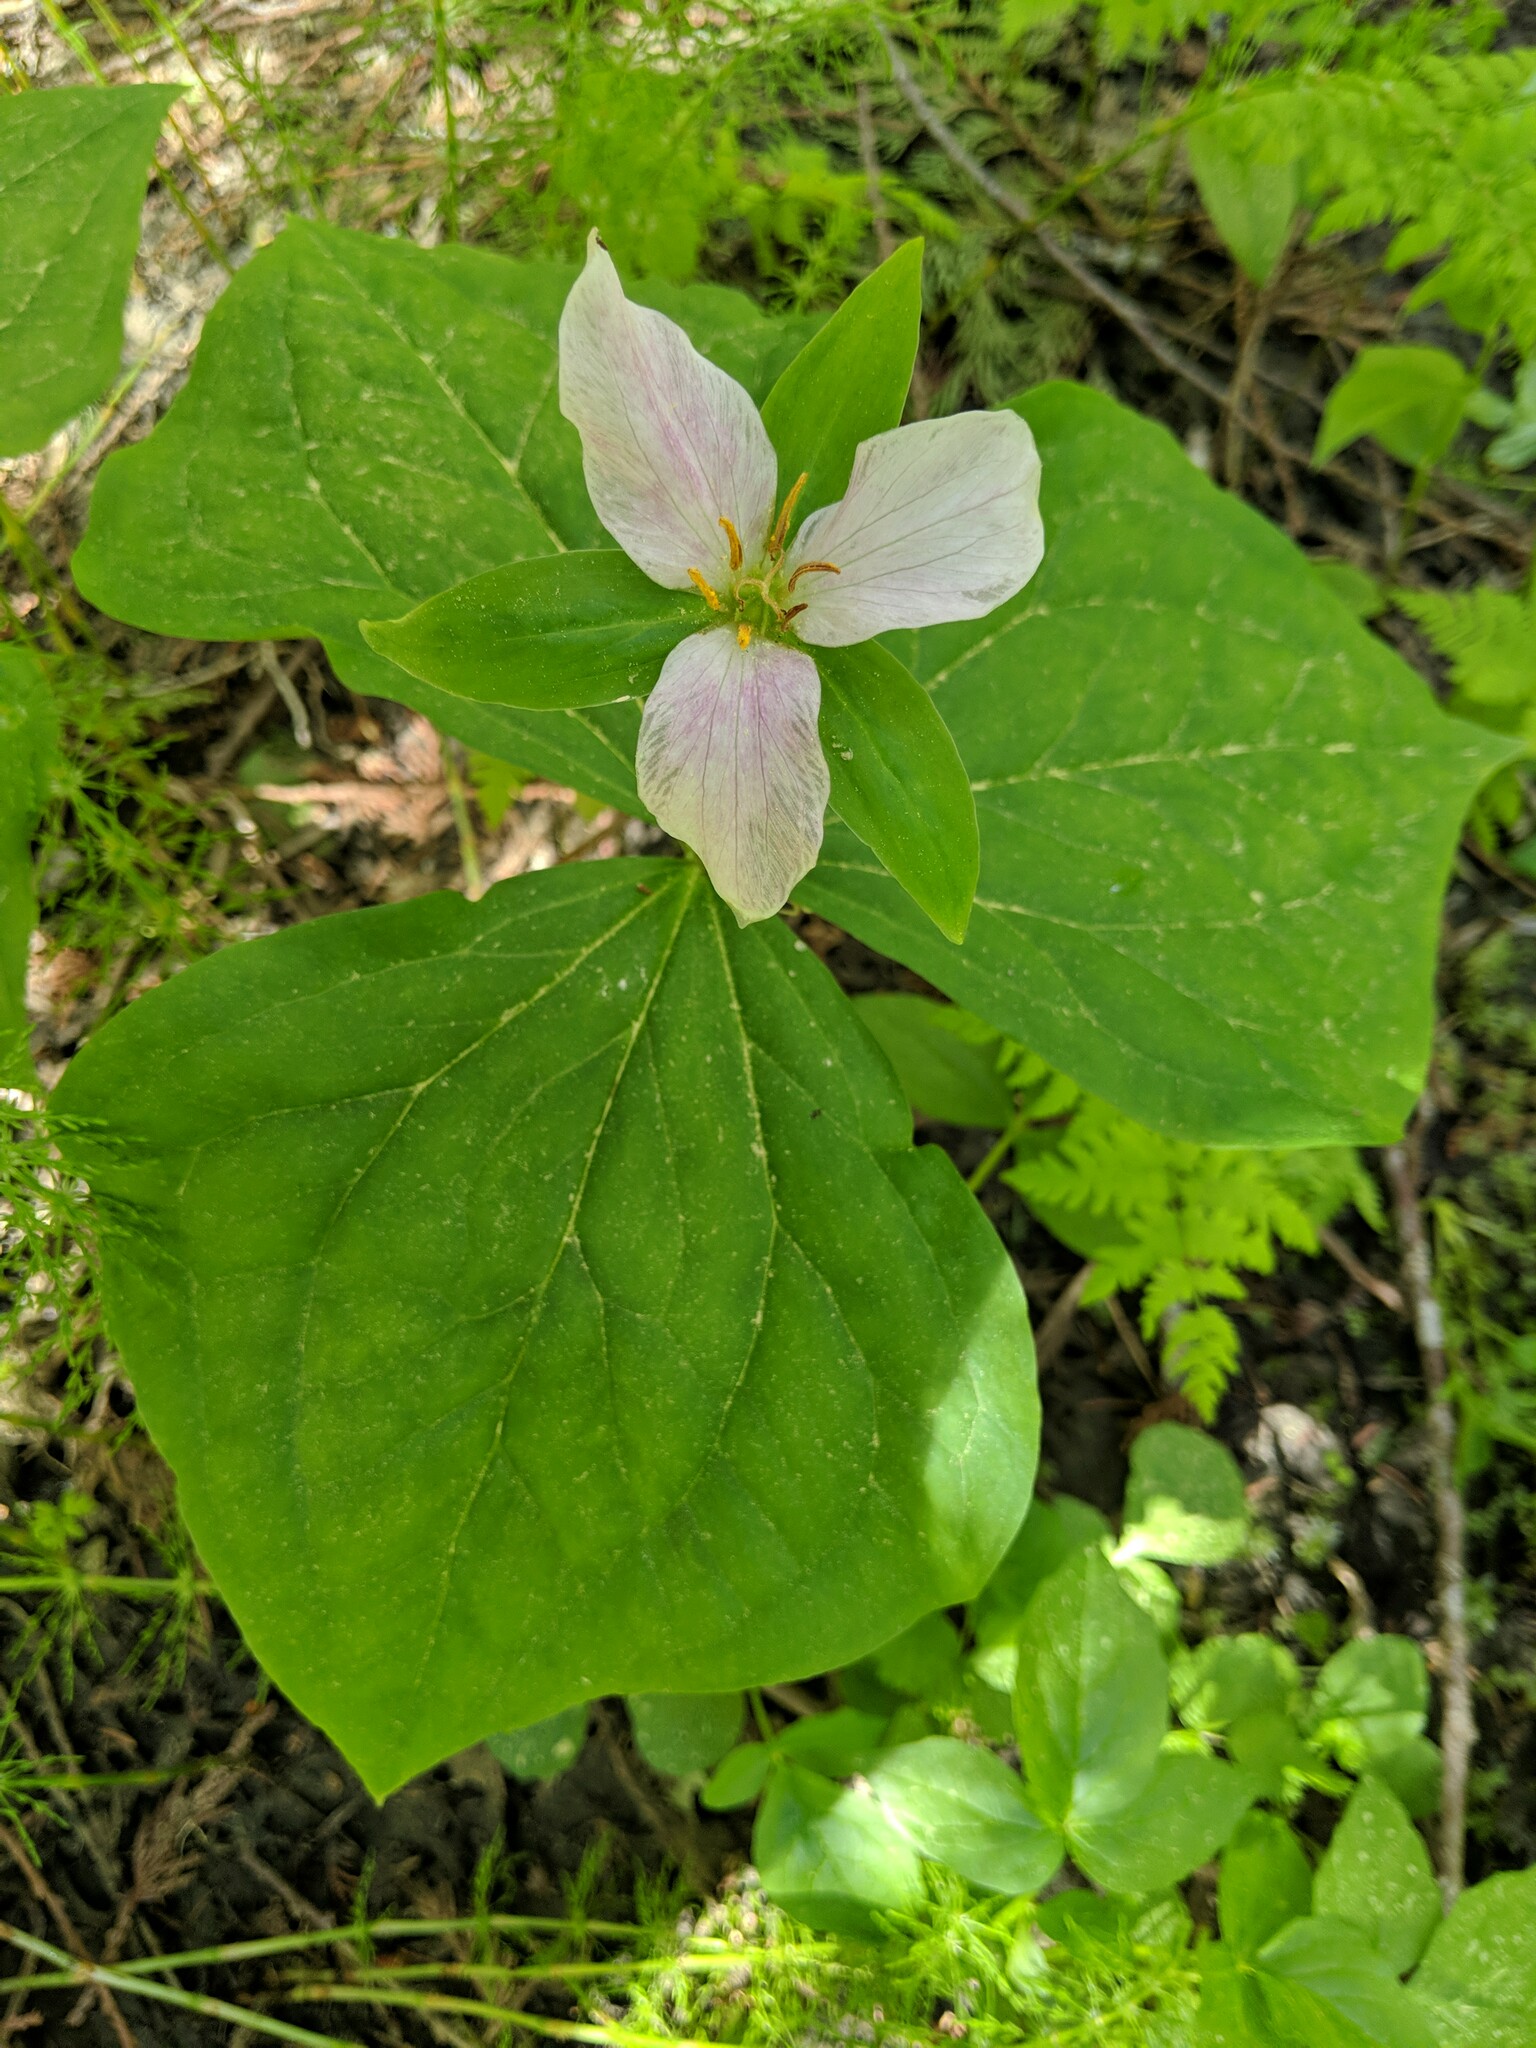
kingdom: Plantae
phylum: Tracheophyta
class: Liliopsida
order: Liliales
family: Melanthiaceae
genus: Trillium
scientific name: Trillium ovatum
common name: Pacific trillium
